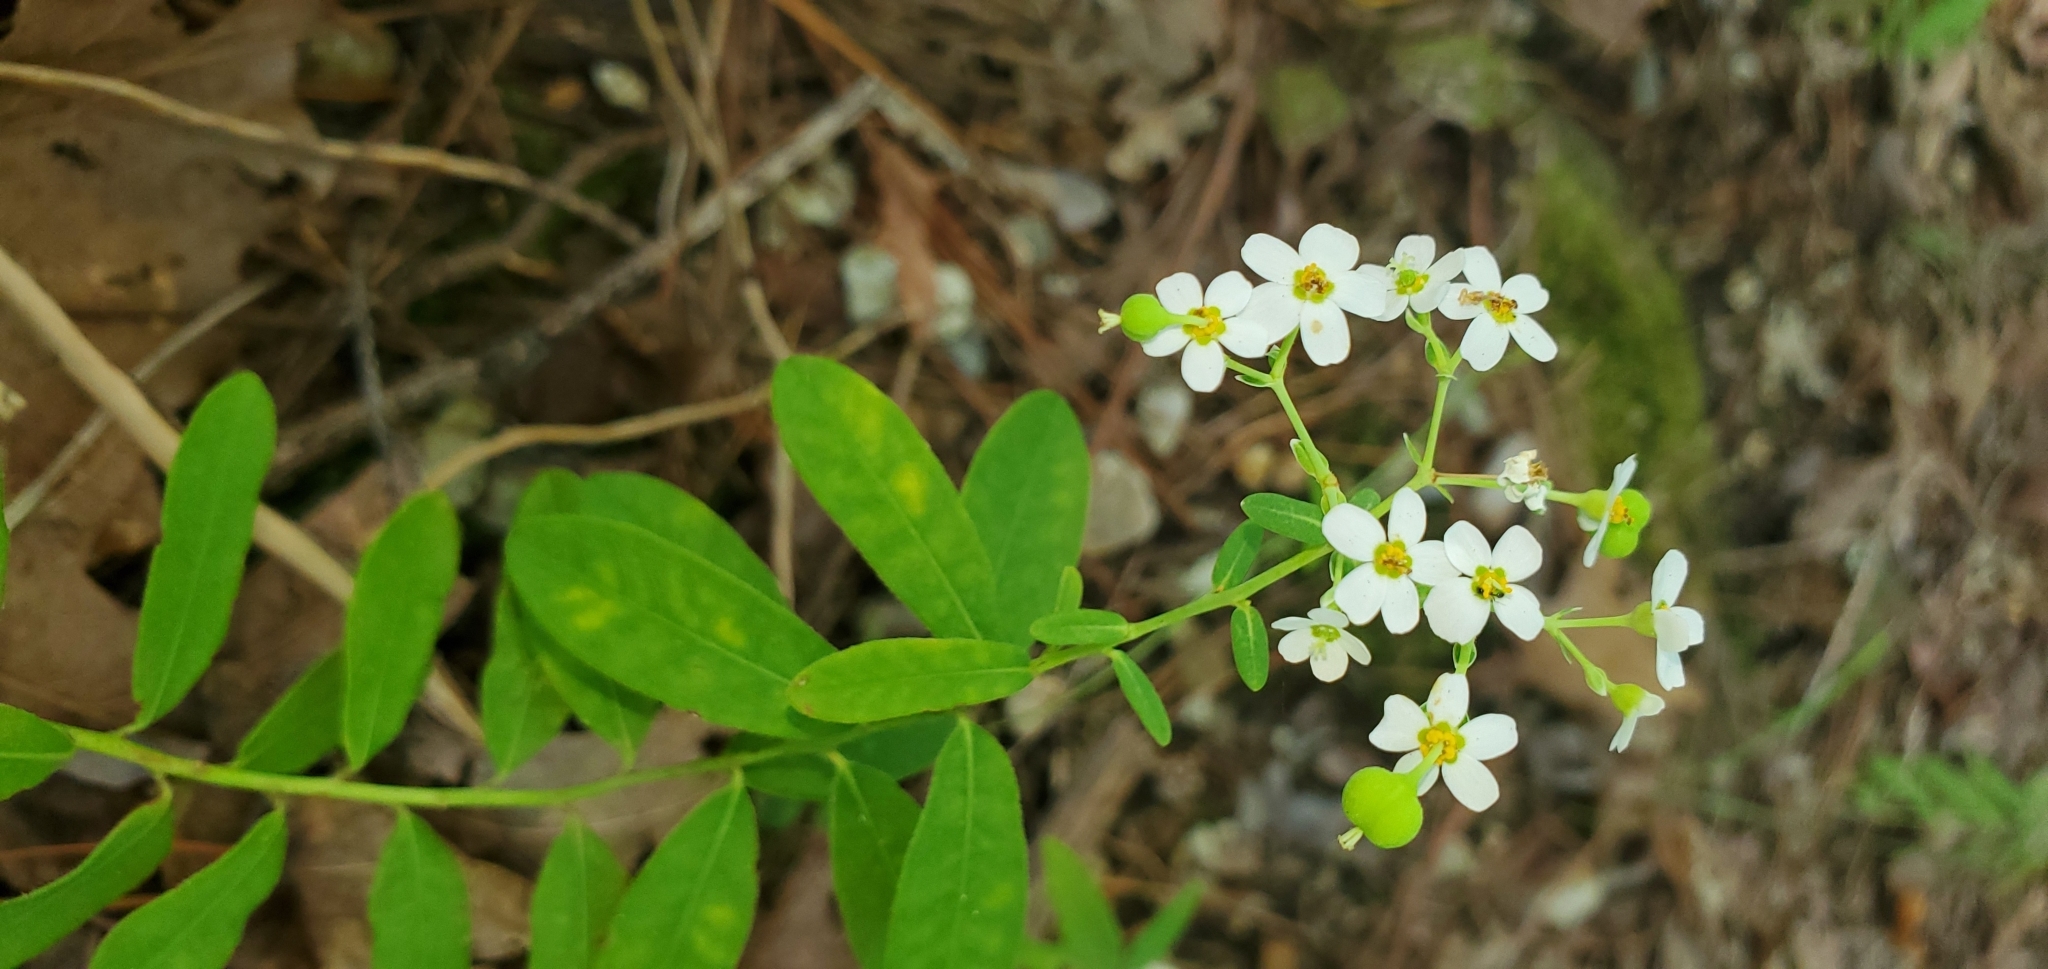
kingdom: Plantae
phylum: Tracheophyta
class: Magnoliopsida
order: Malpighiales
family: Euphorbiaceae
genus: Euphorbia
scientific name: Euphorbia corollata
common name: Flowering spurge
